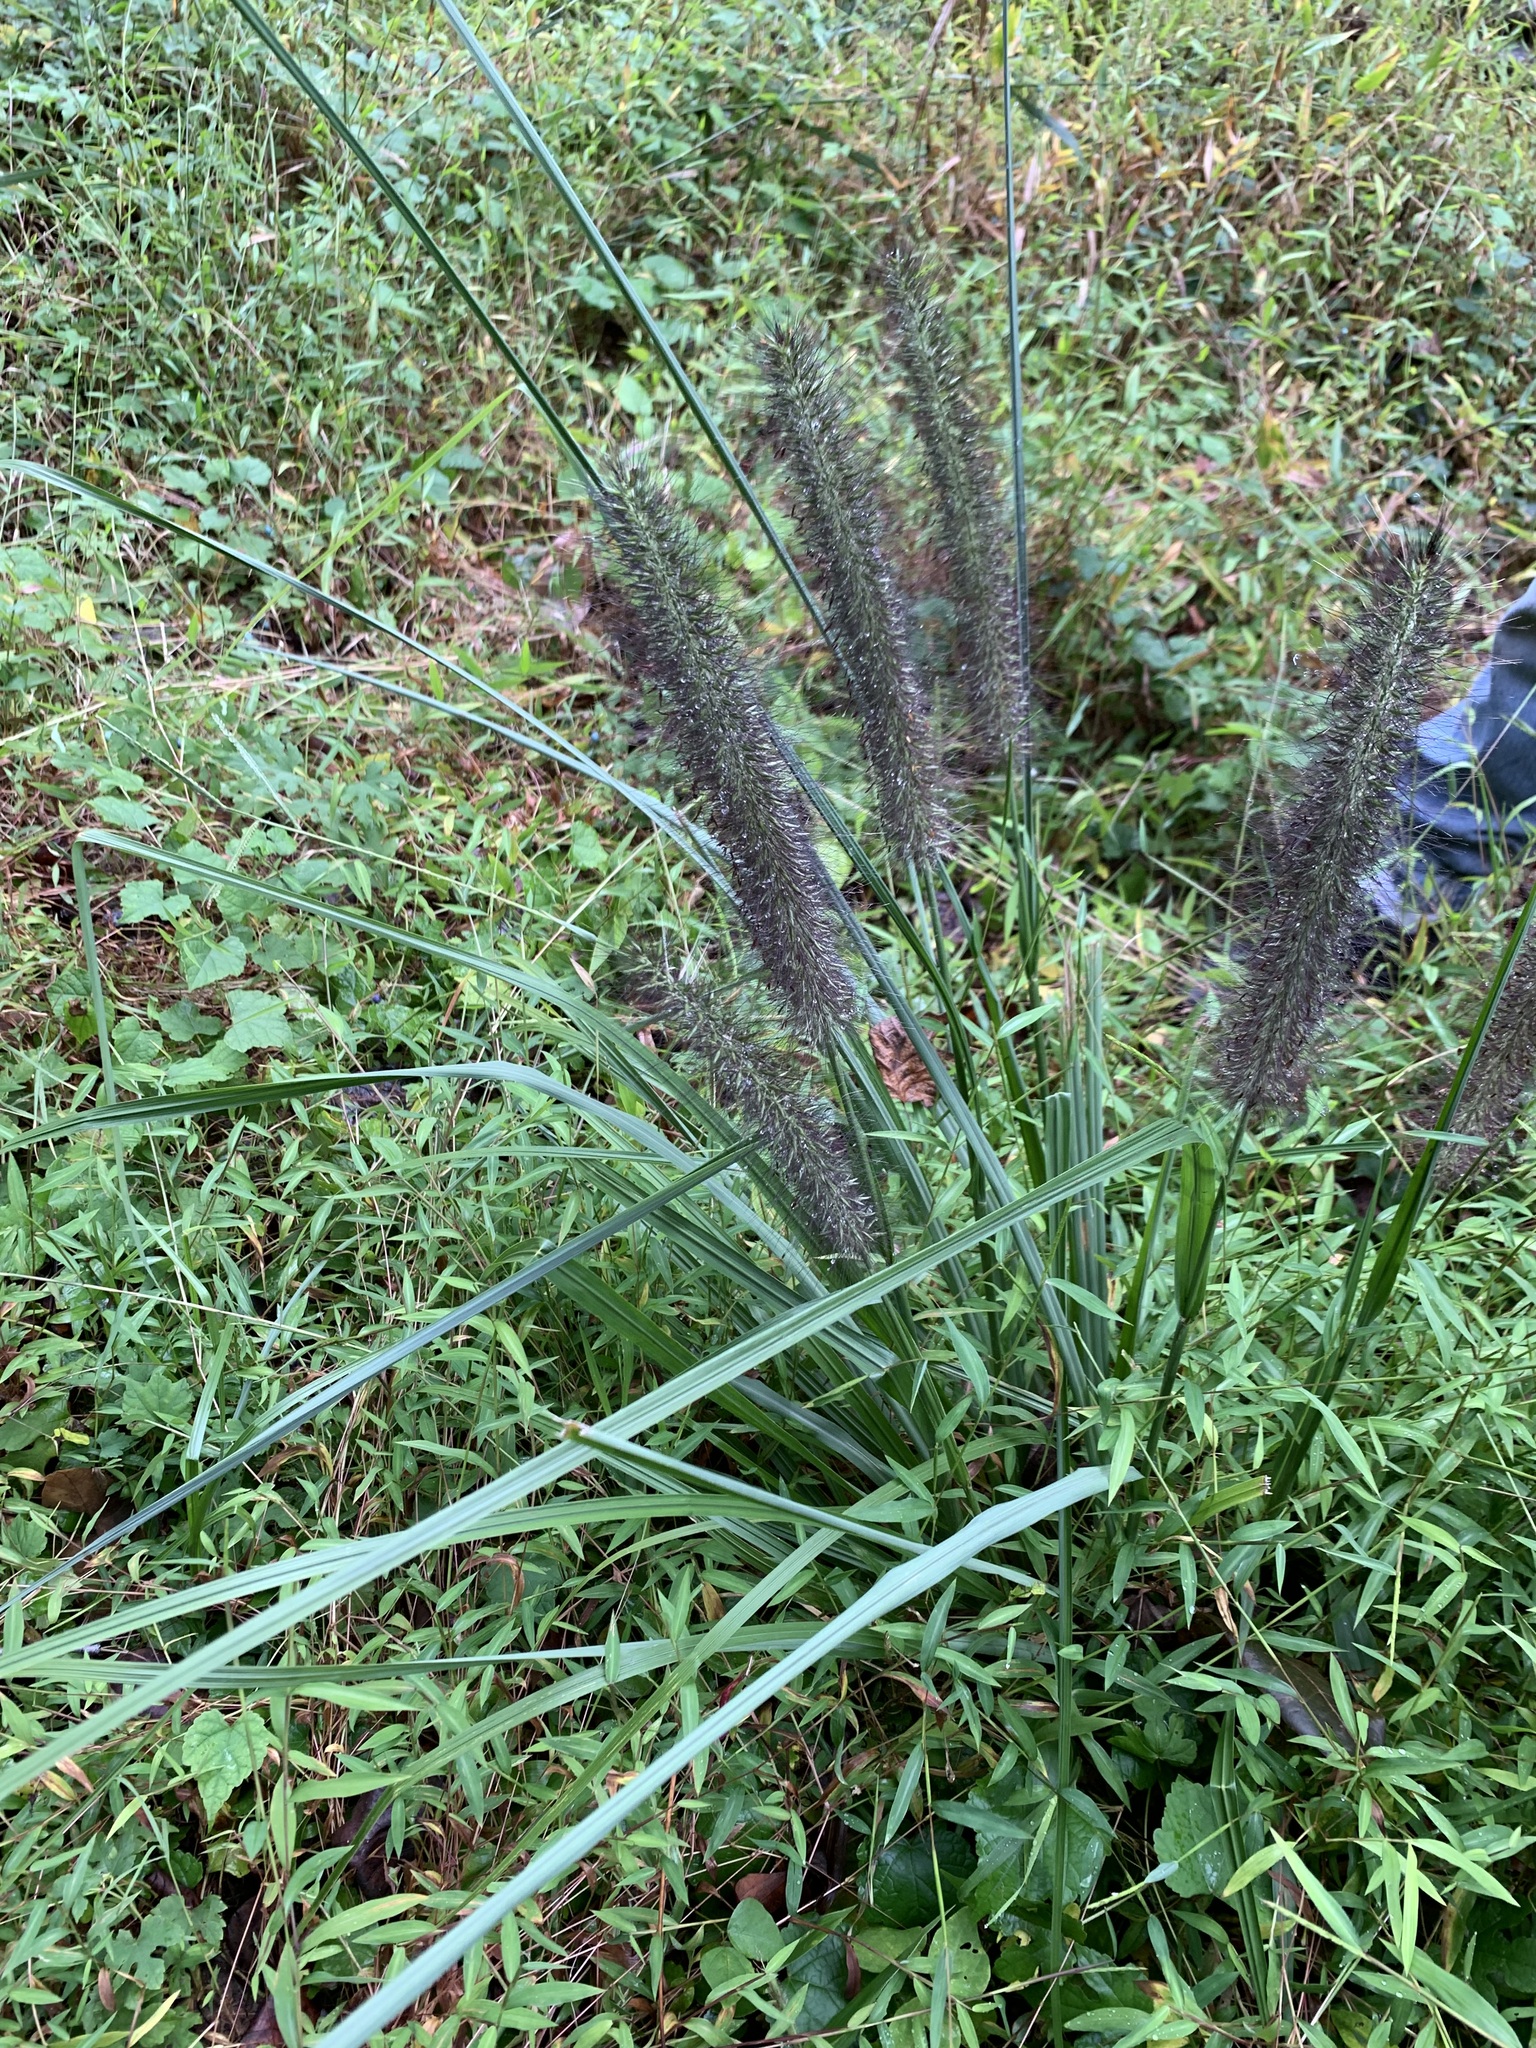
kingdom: Plantae
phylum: Tracheophyta
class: Liliopsida
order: Poales
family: Poaceae
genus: Cenchrus
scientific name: Cenchrus alopecuroides
